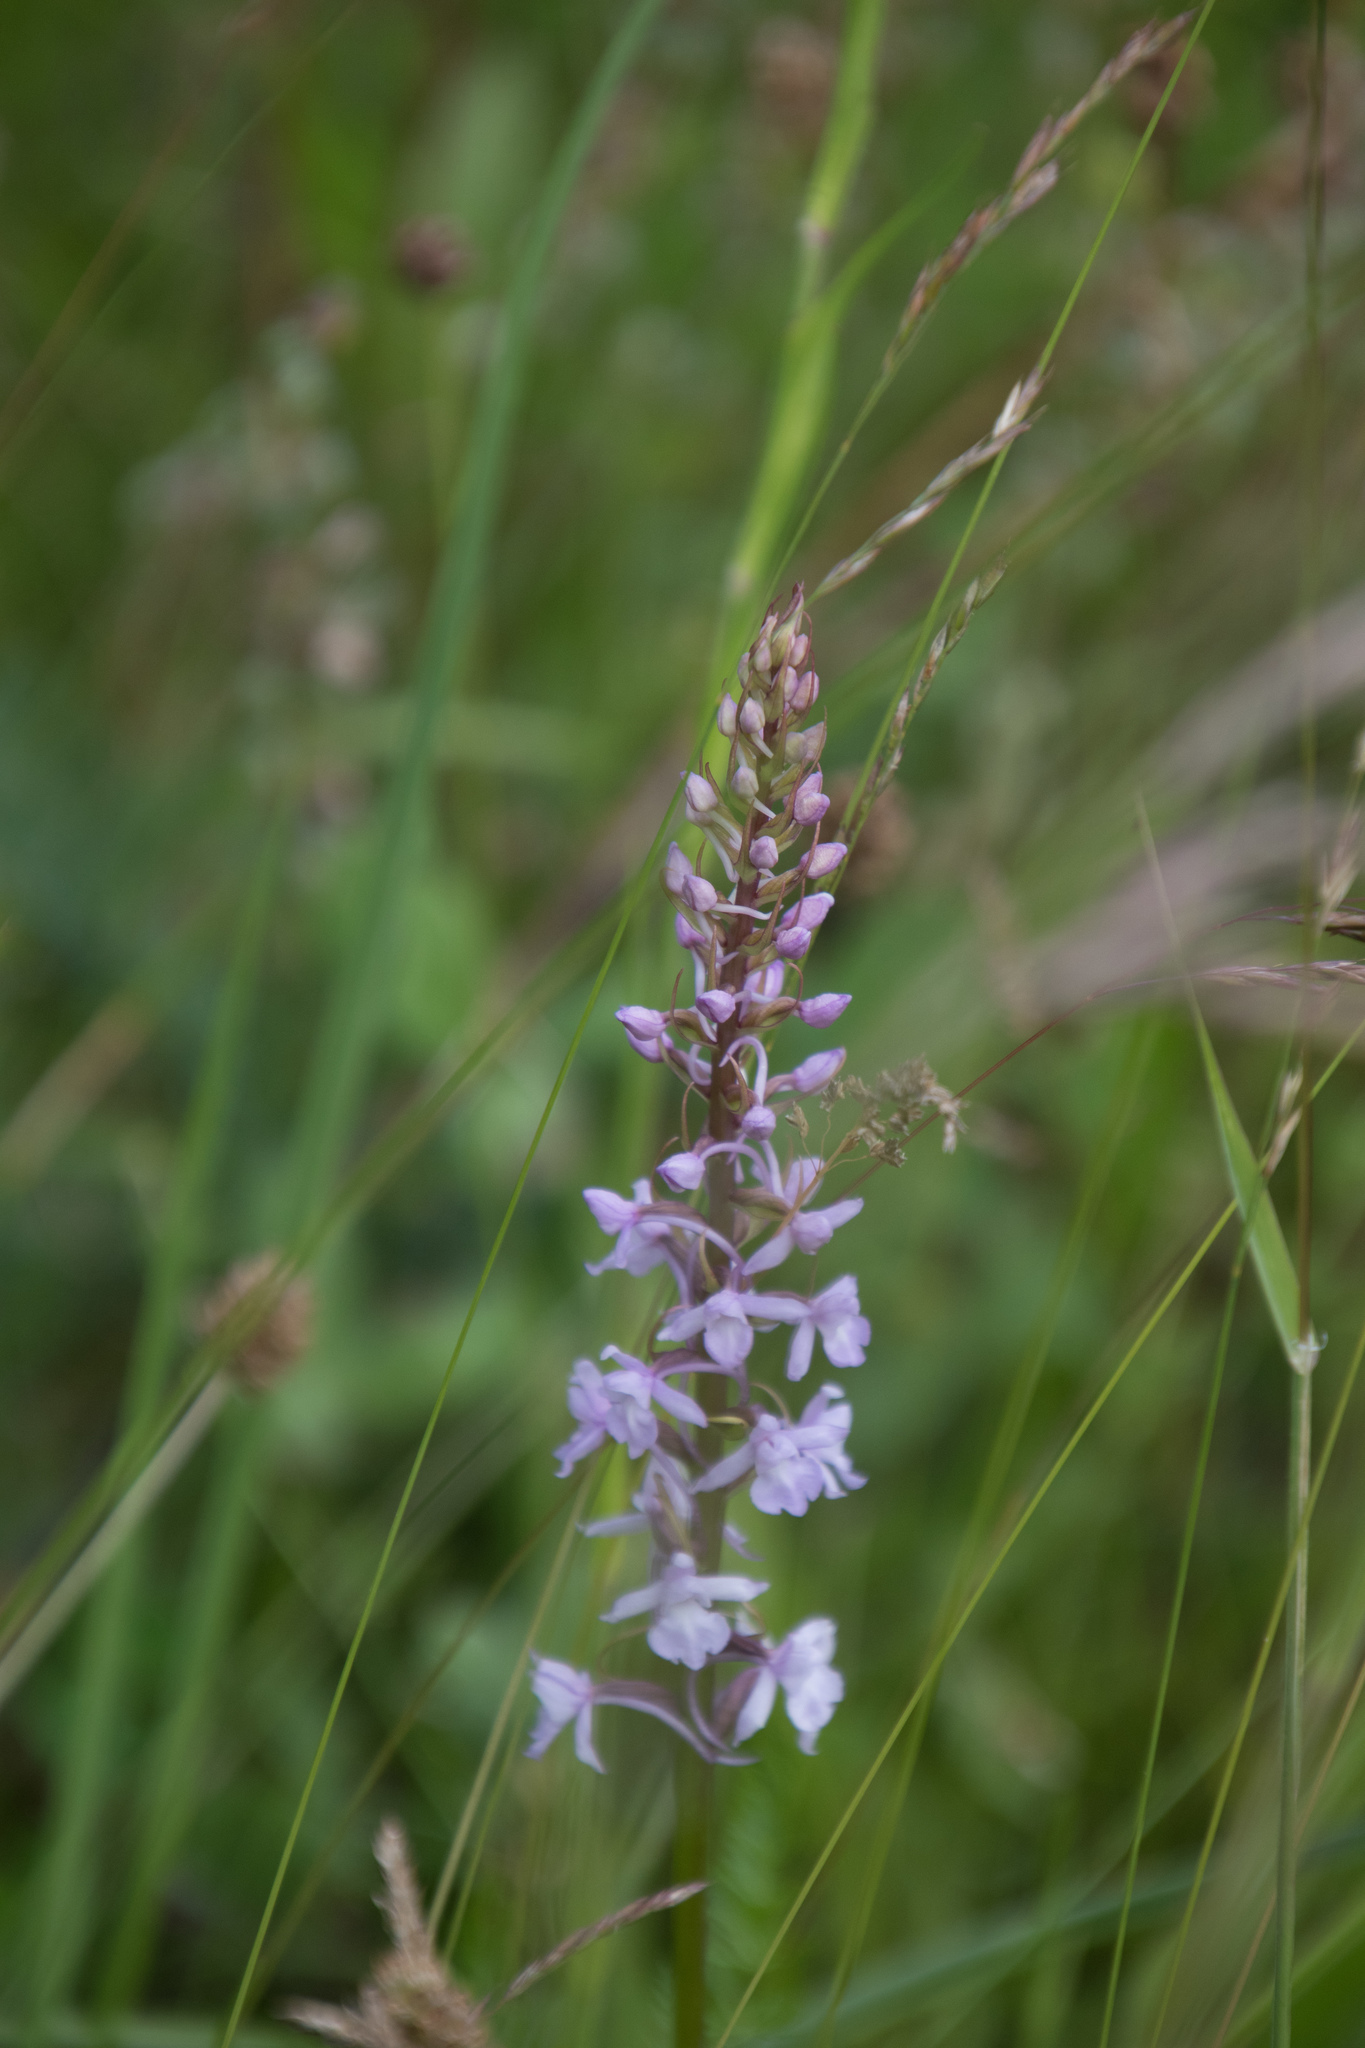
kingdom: Plantae
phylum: Tracheophyta
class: Liliopsida
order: Asparagales
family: Orchidaceae
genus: Gymnadenia
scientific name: Gymnadenia conopsea
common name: Fragrant orchid
